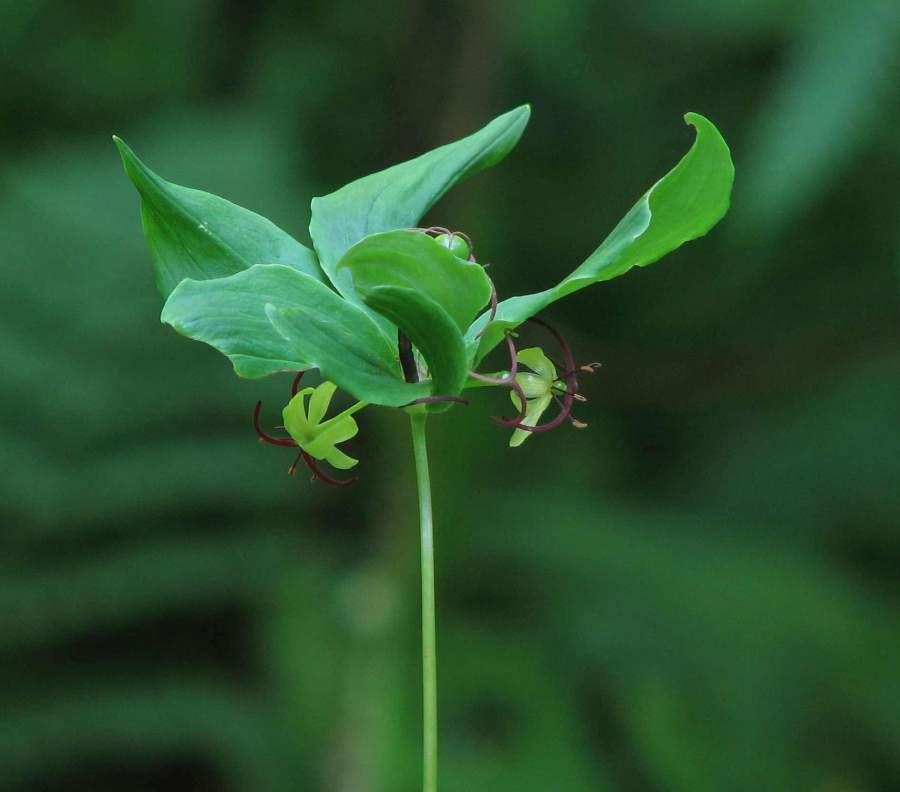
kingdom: Plantae
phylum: Tracheophyta
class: Liliopsida
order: Liliales
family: Liliaceae
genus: Medeola
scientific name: Medeola virginiana
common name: Indian cucumber-root
